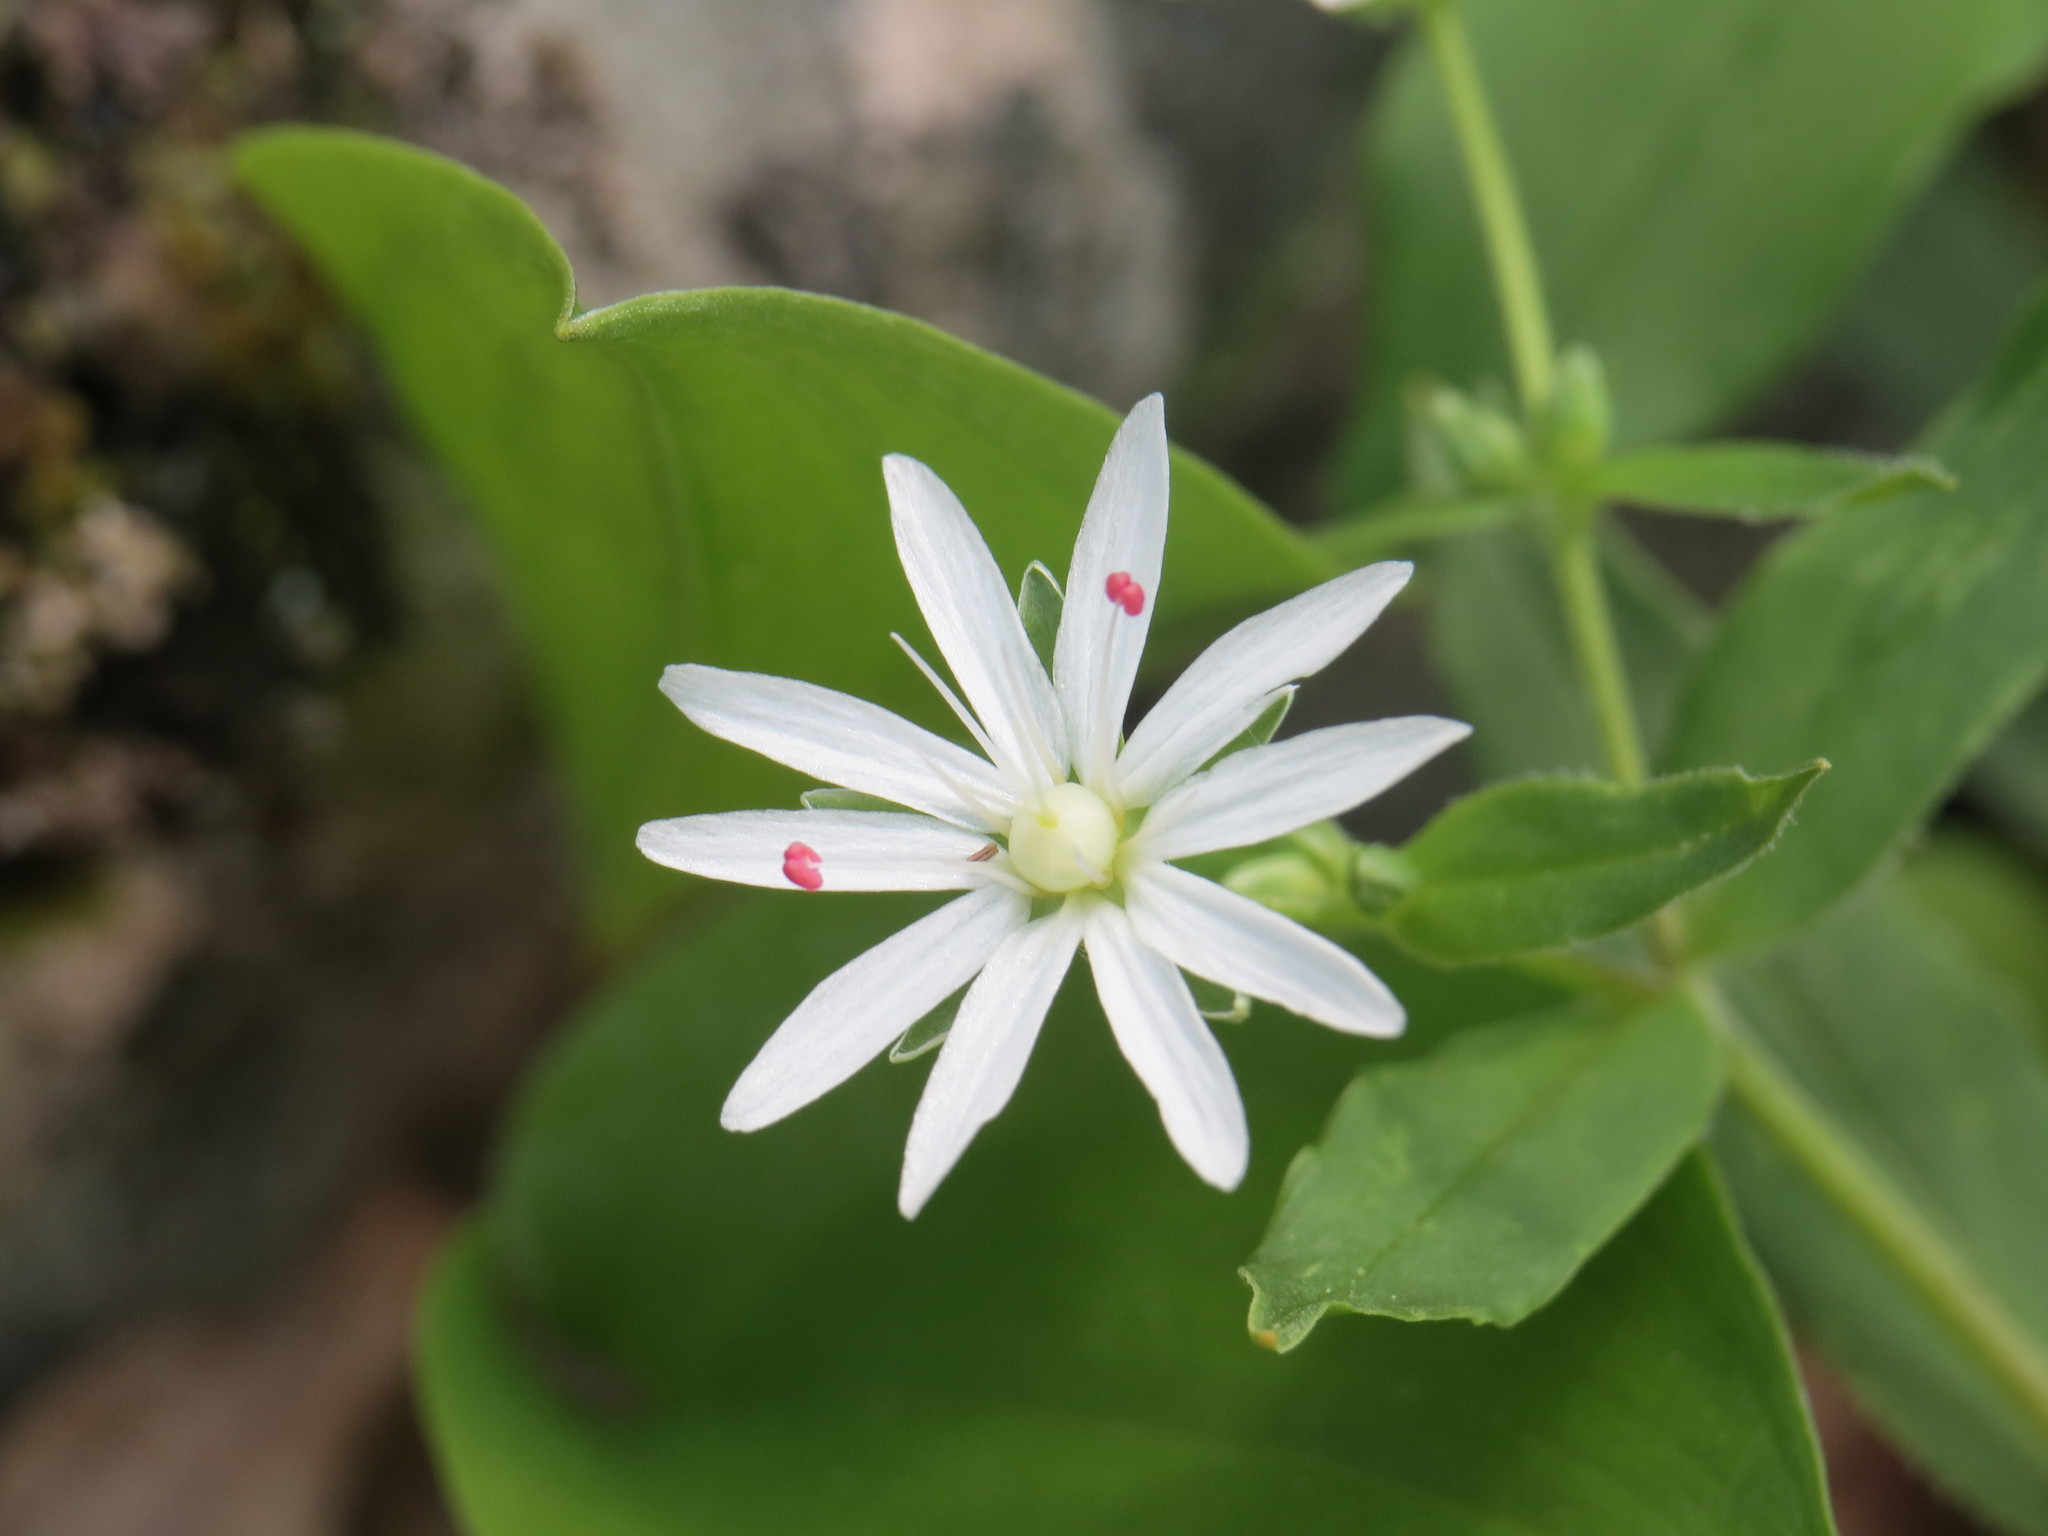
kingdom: Plantae
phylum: Tracheophyta
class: Magnoliopsida
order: Caryophyllales
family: Caryophyllaceae
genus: Stellaria
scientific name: Stellaria pubera
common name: Star chickweed
